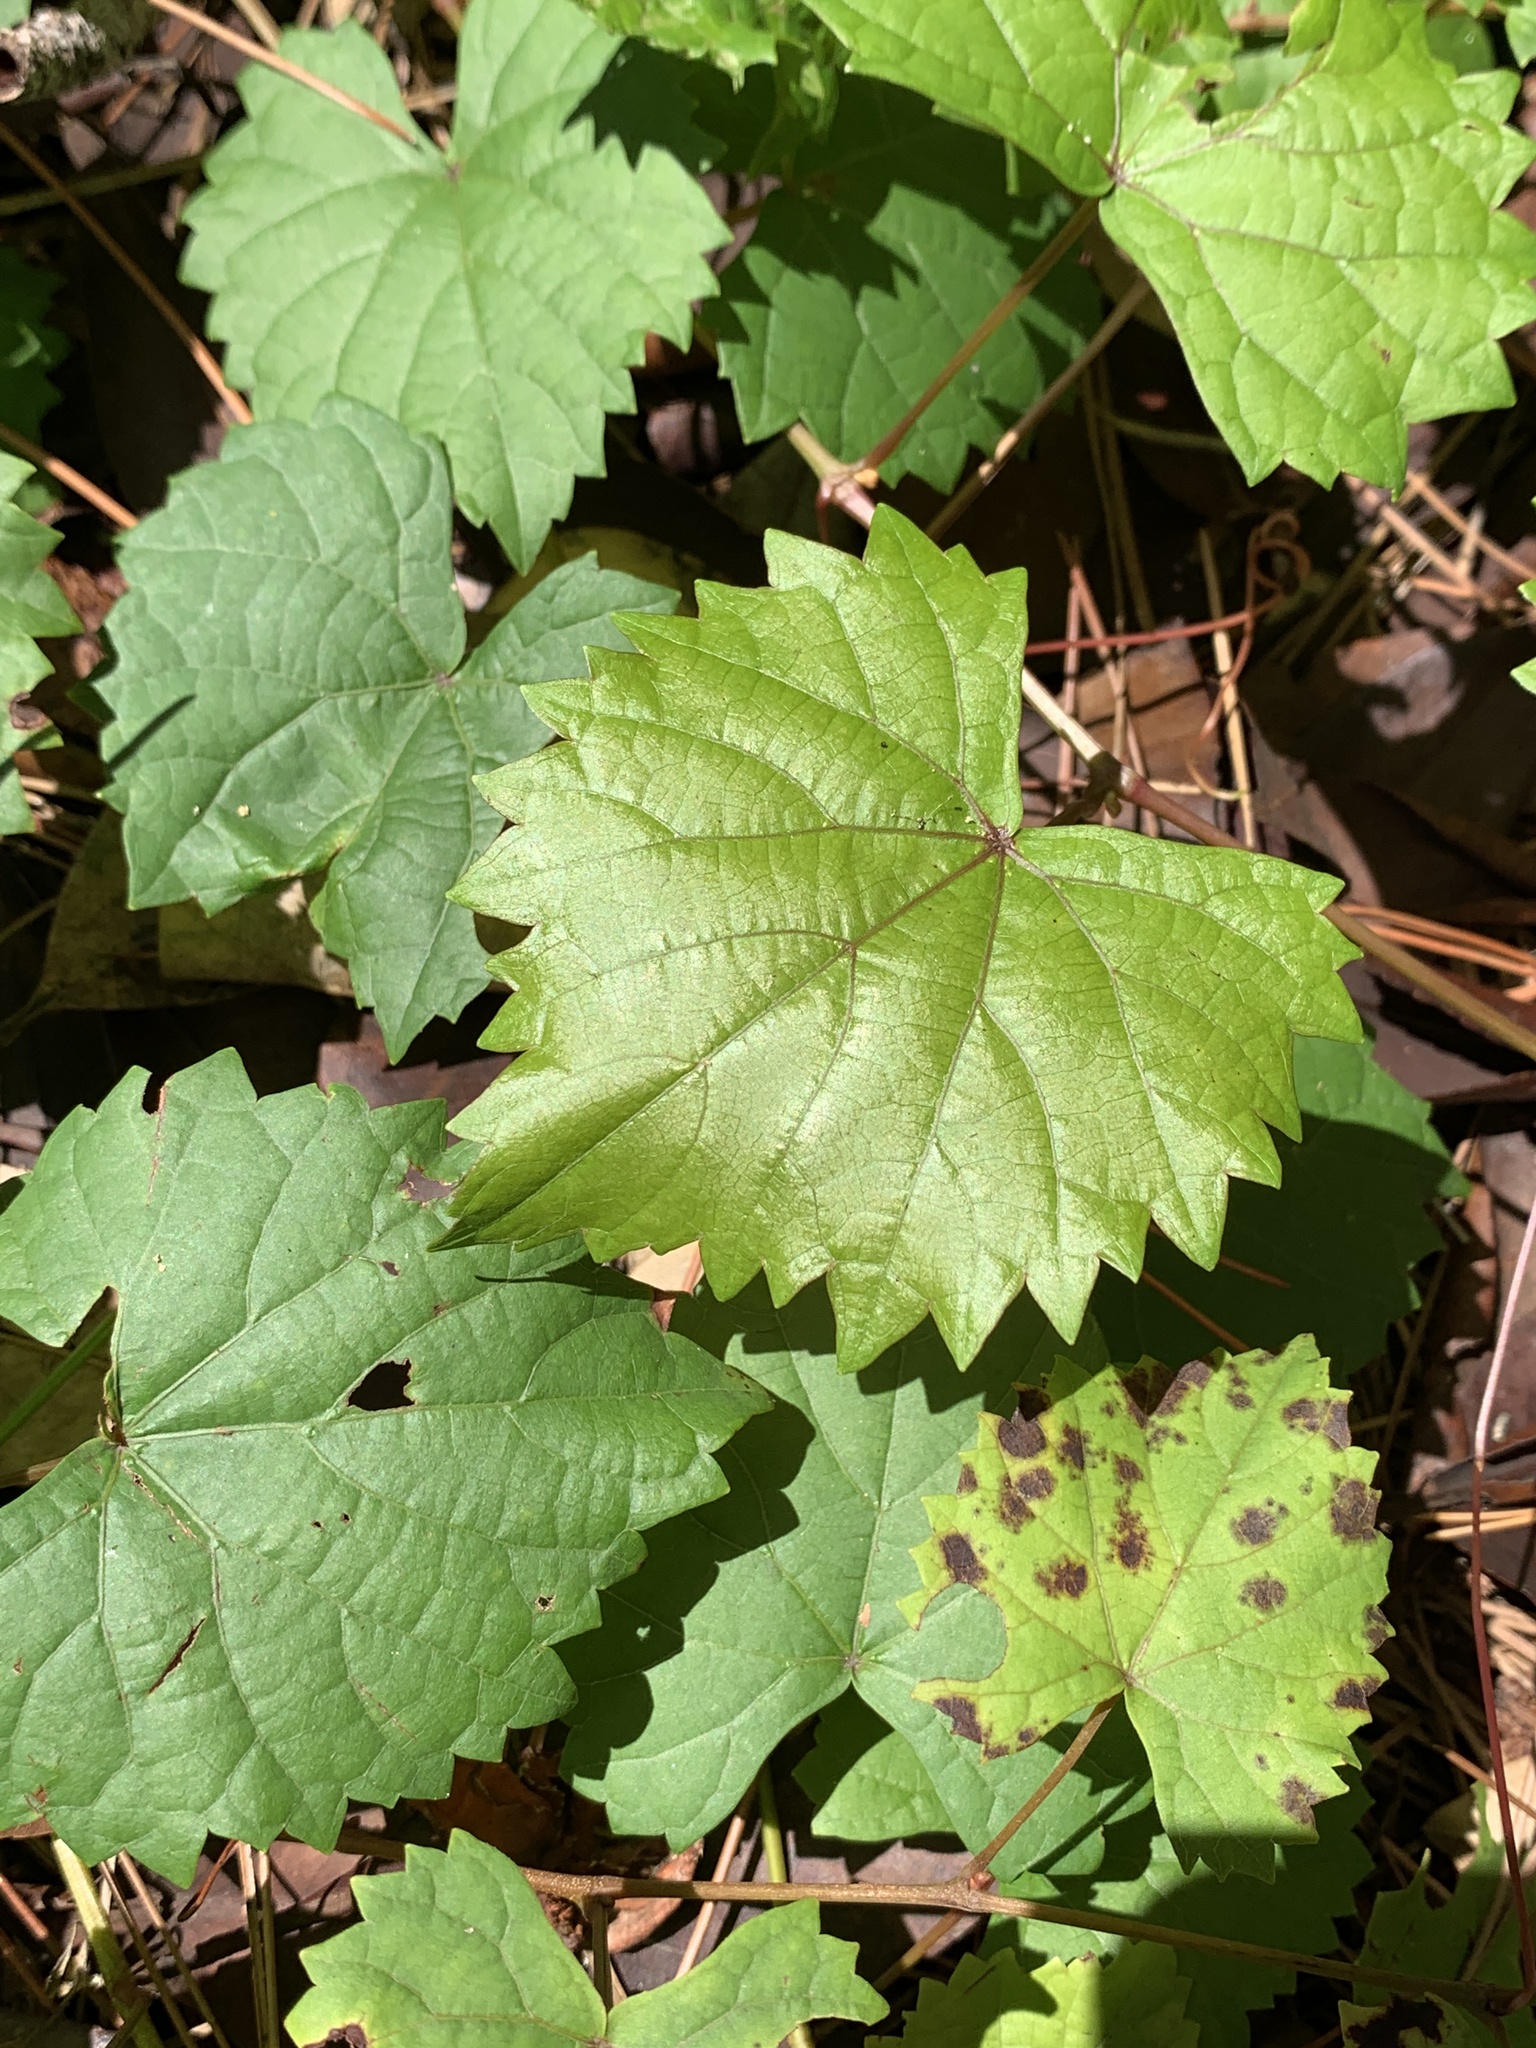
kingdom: Plantae
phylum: Tracheophyta
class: Magnoliopsida
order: Vitales
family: Vitaceae
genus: Vitis
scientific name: Vitis rotundifolia
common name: Muscadine grape
